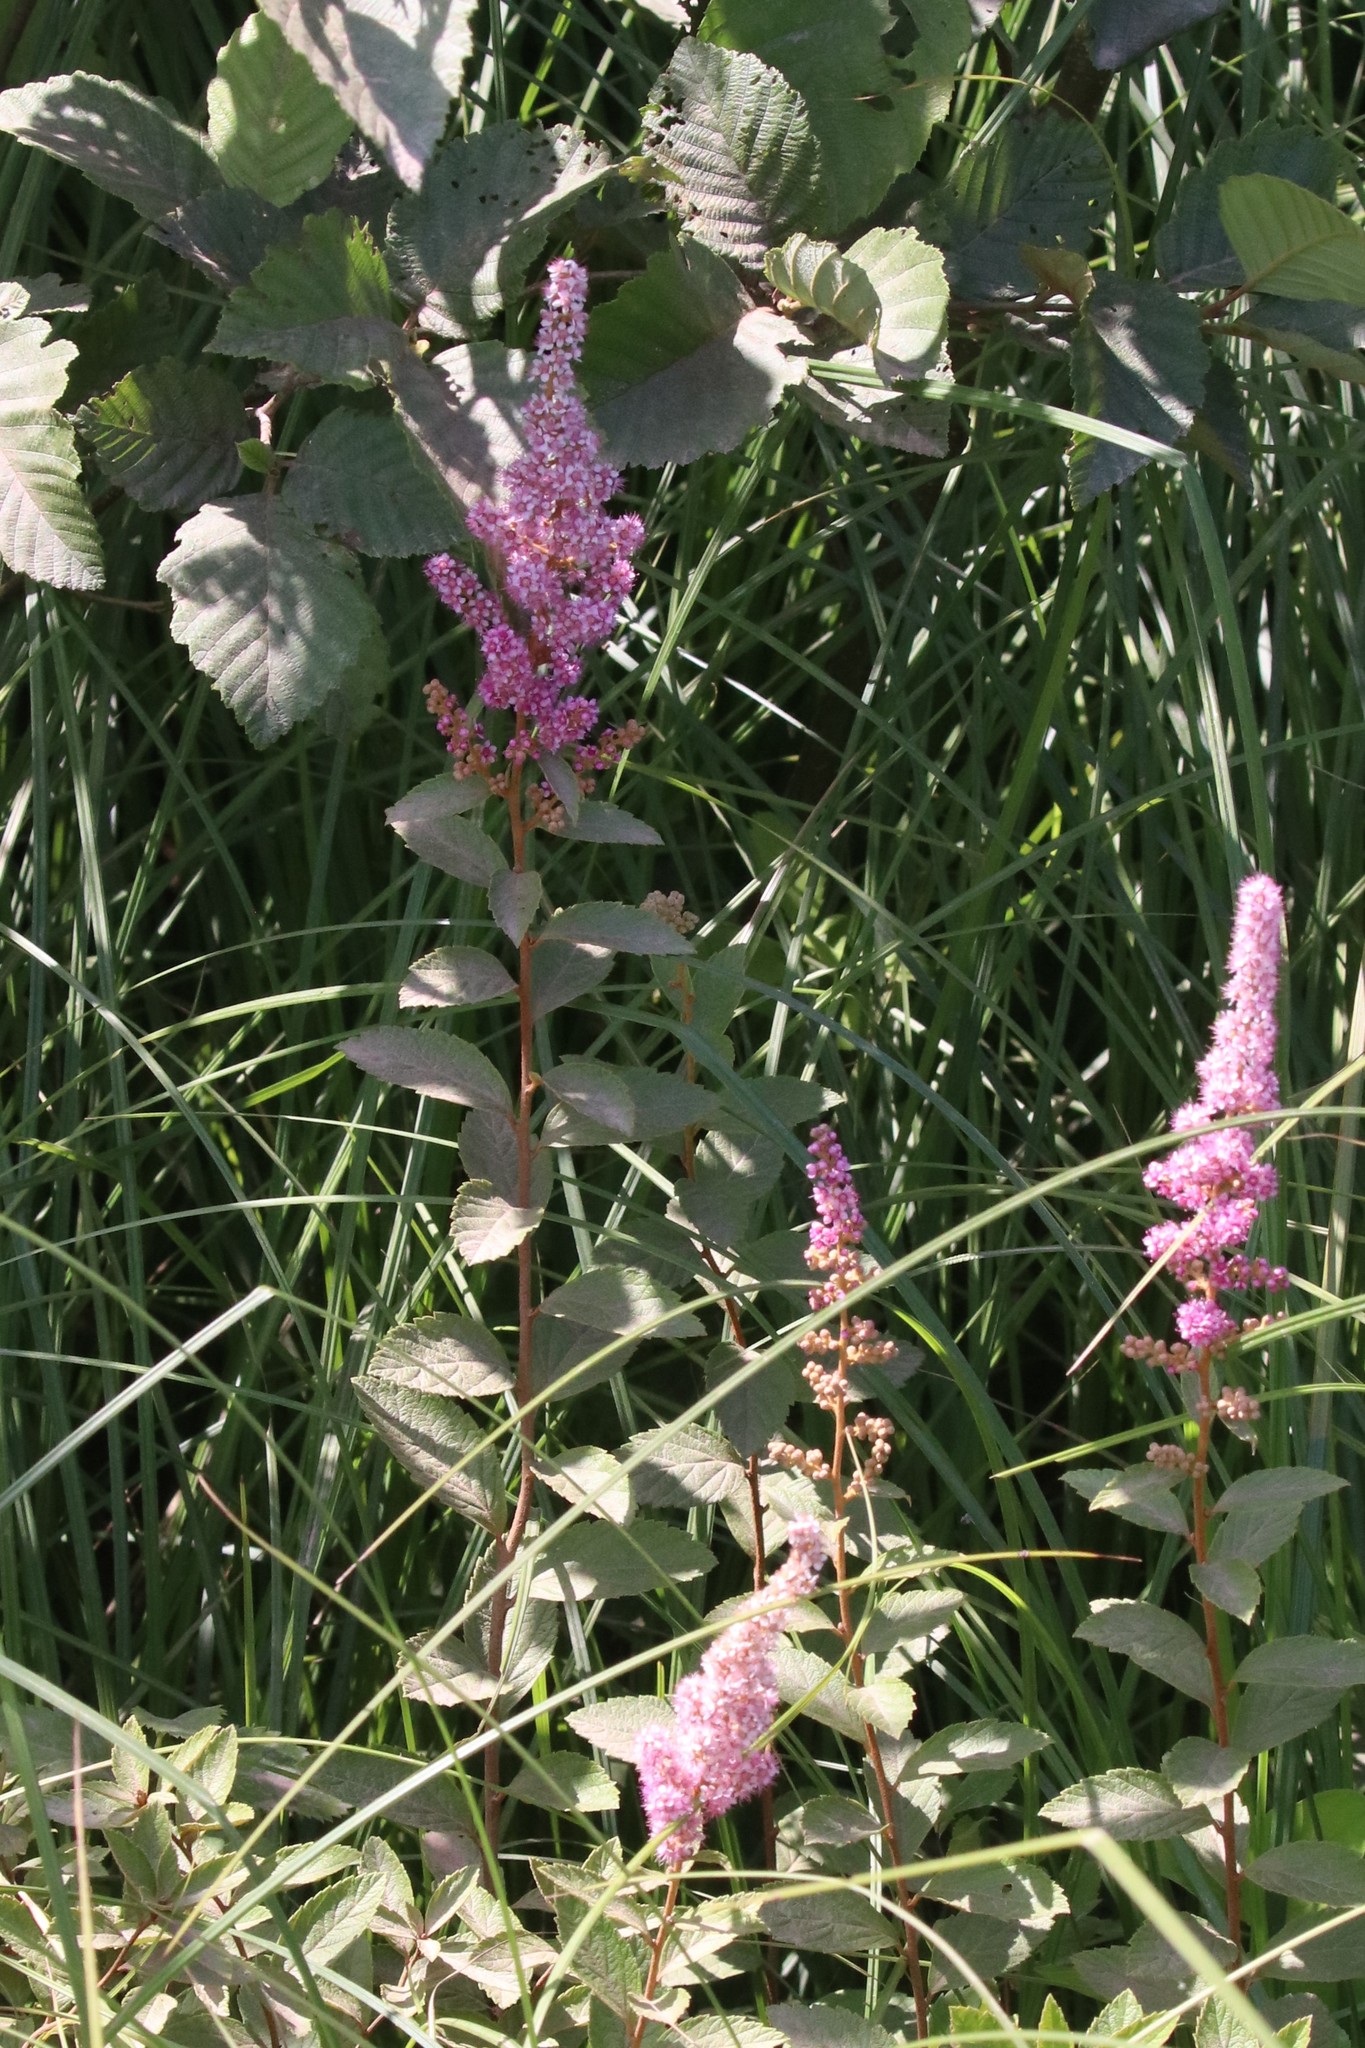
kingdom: Plantae
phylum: Tracheophyta
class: Magnoliopsida
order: Rosales
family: Rosaceae
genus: Spiraea
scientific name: Spiraea tomentosa
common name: Hardhack
